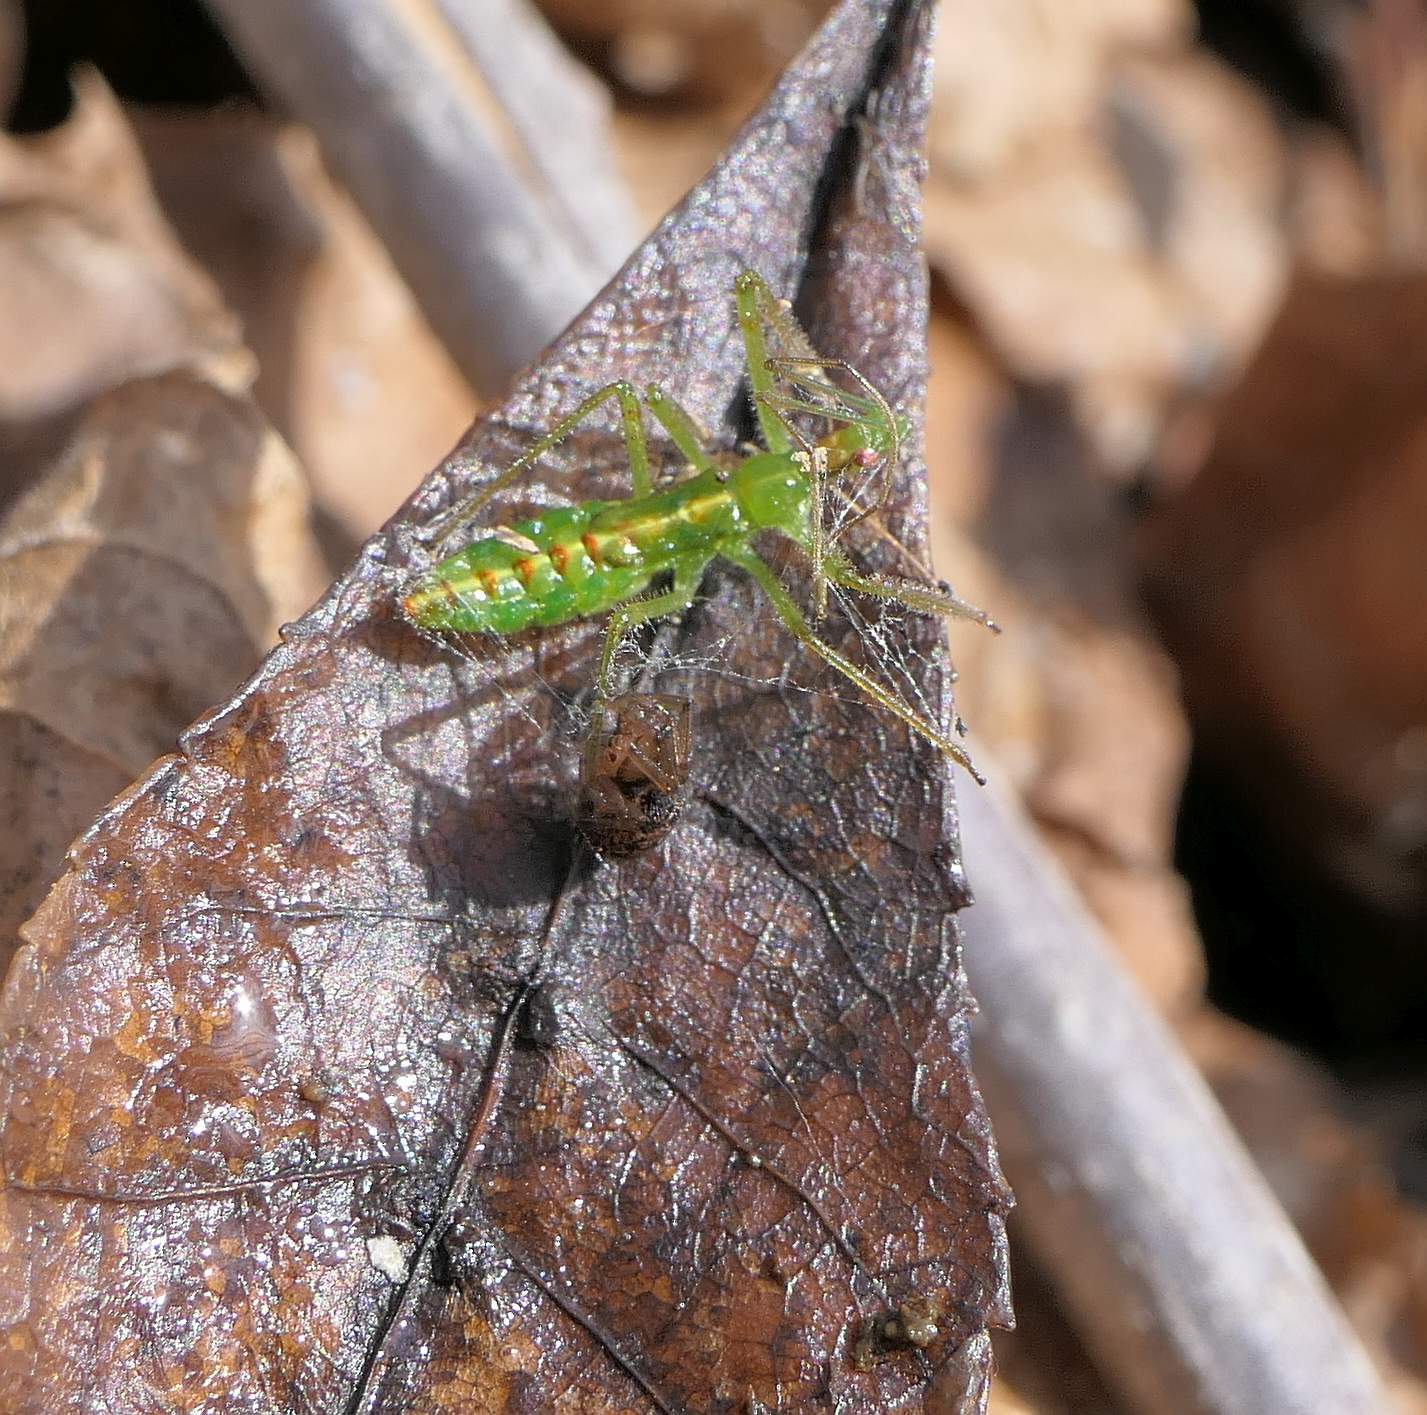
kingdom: Animalia
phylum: Arthropoda
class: Insecta
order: Hemiptera
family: Reduviidae
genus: Zelus
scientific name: Zelus luridus
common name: Pale green assassin bug
